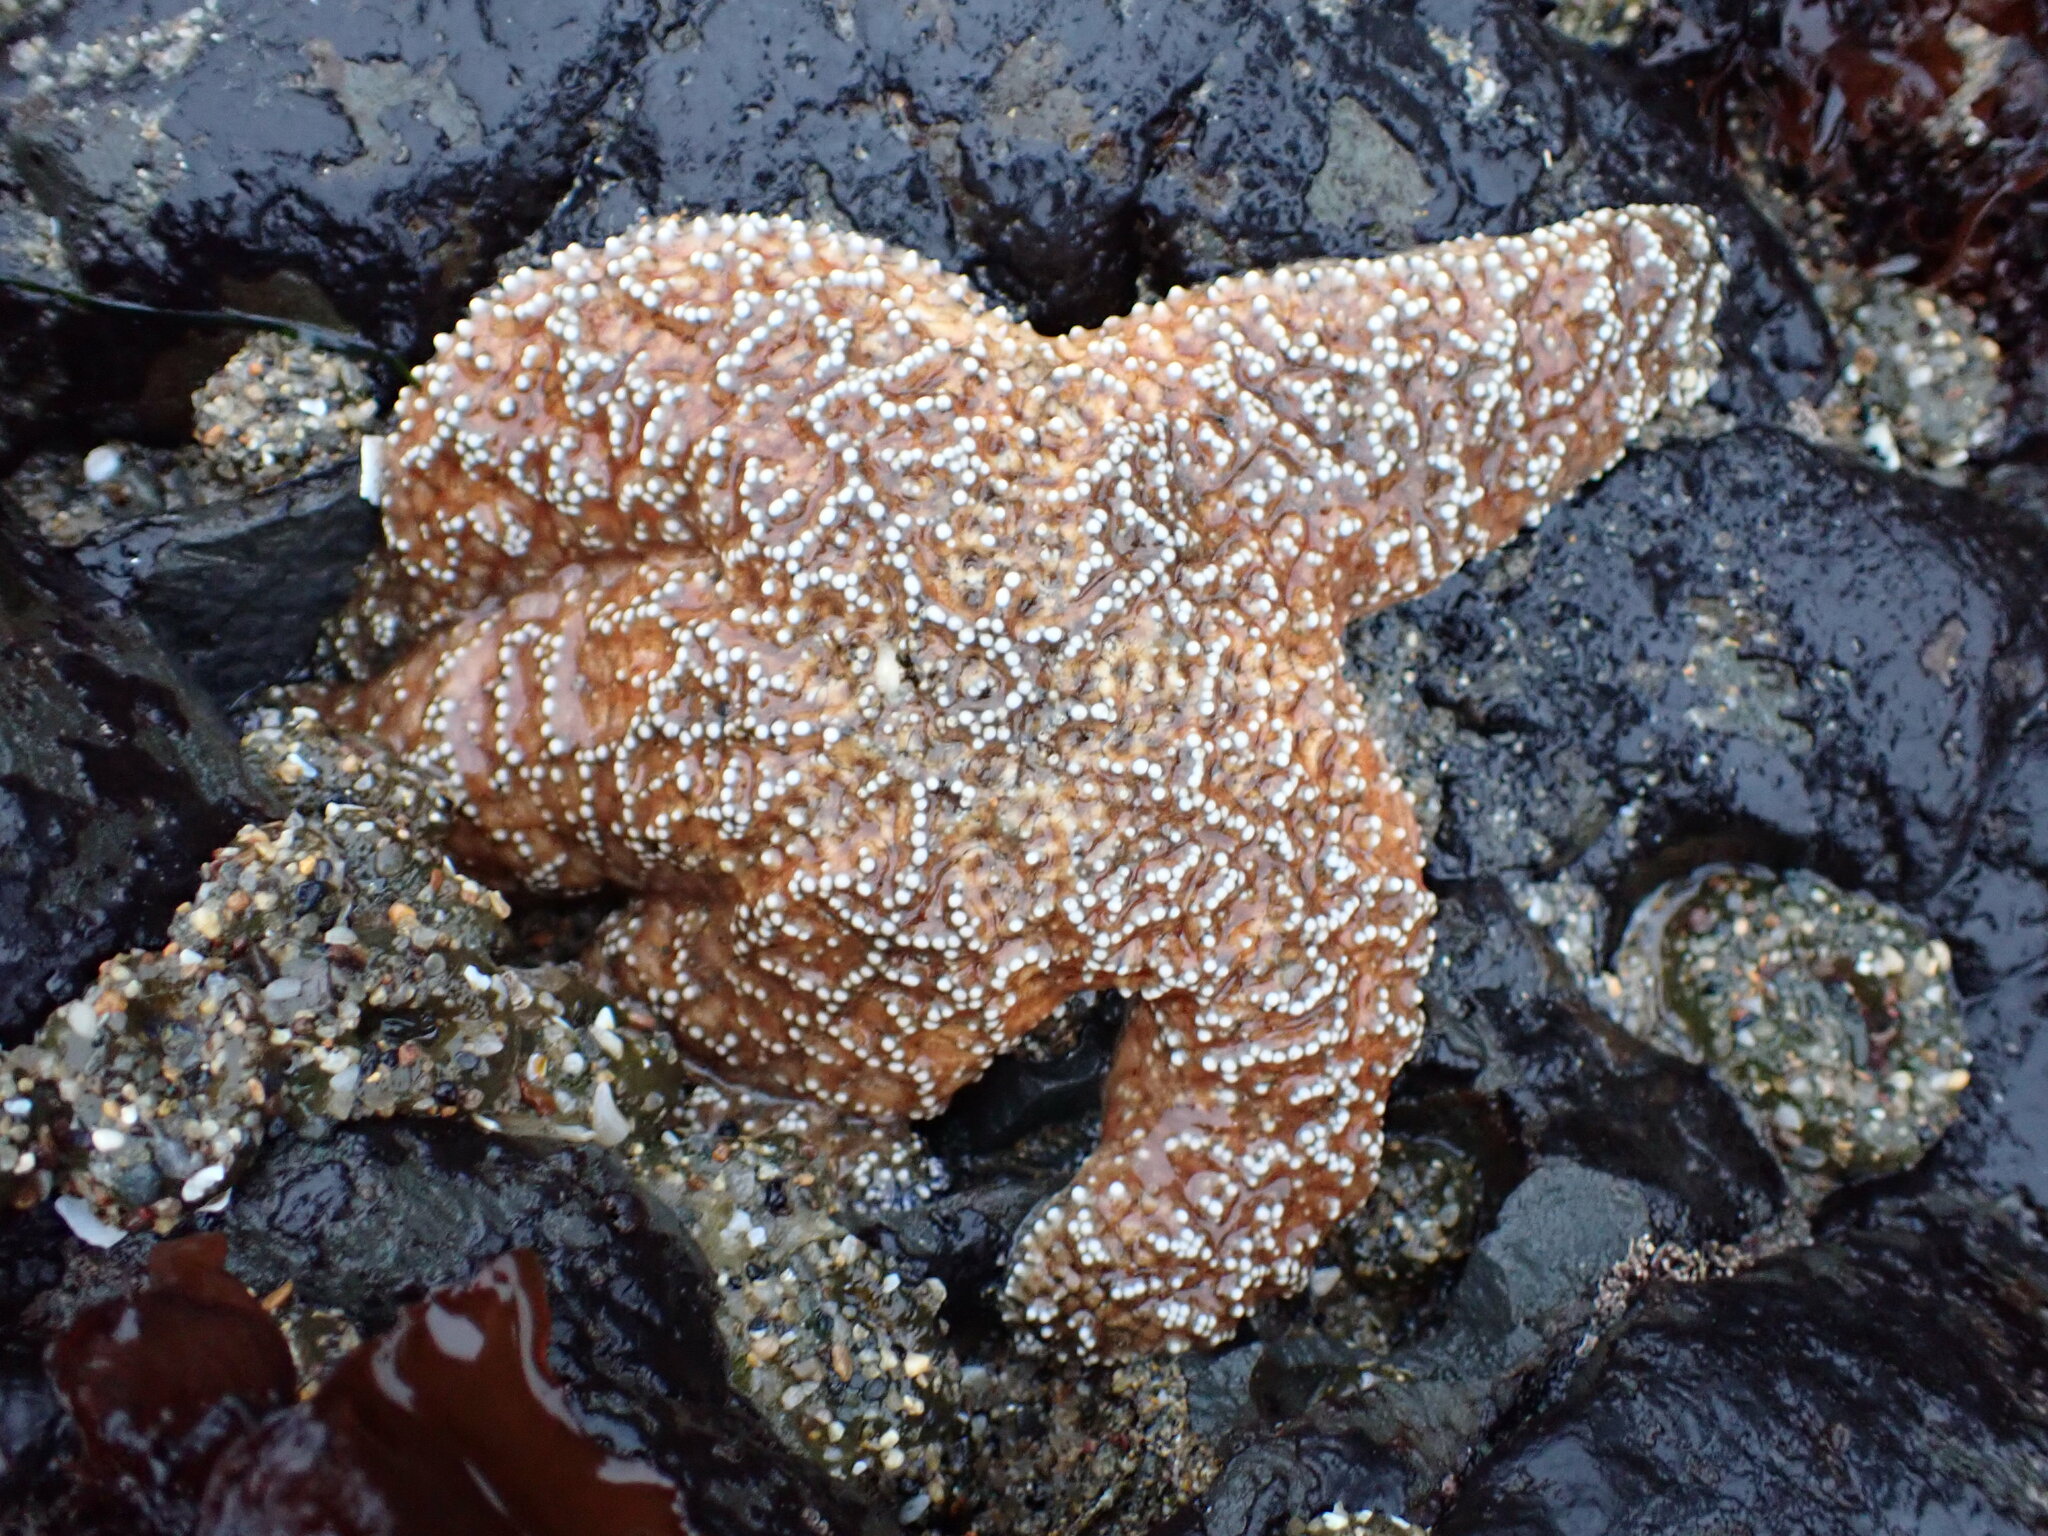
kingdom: Animalia
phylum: Echinodermata
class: Asteroidea
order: Forcipulatida
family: Asteriidae
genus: Pisaster
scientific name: Pisaster ochraceus
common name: Ochre stars
